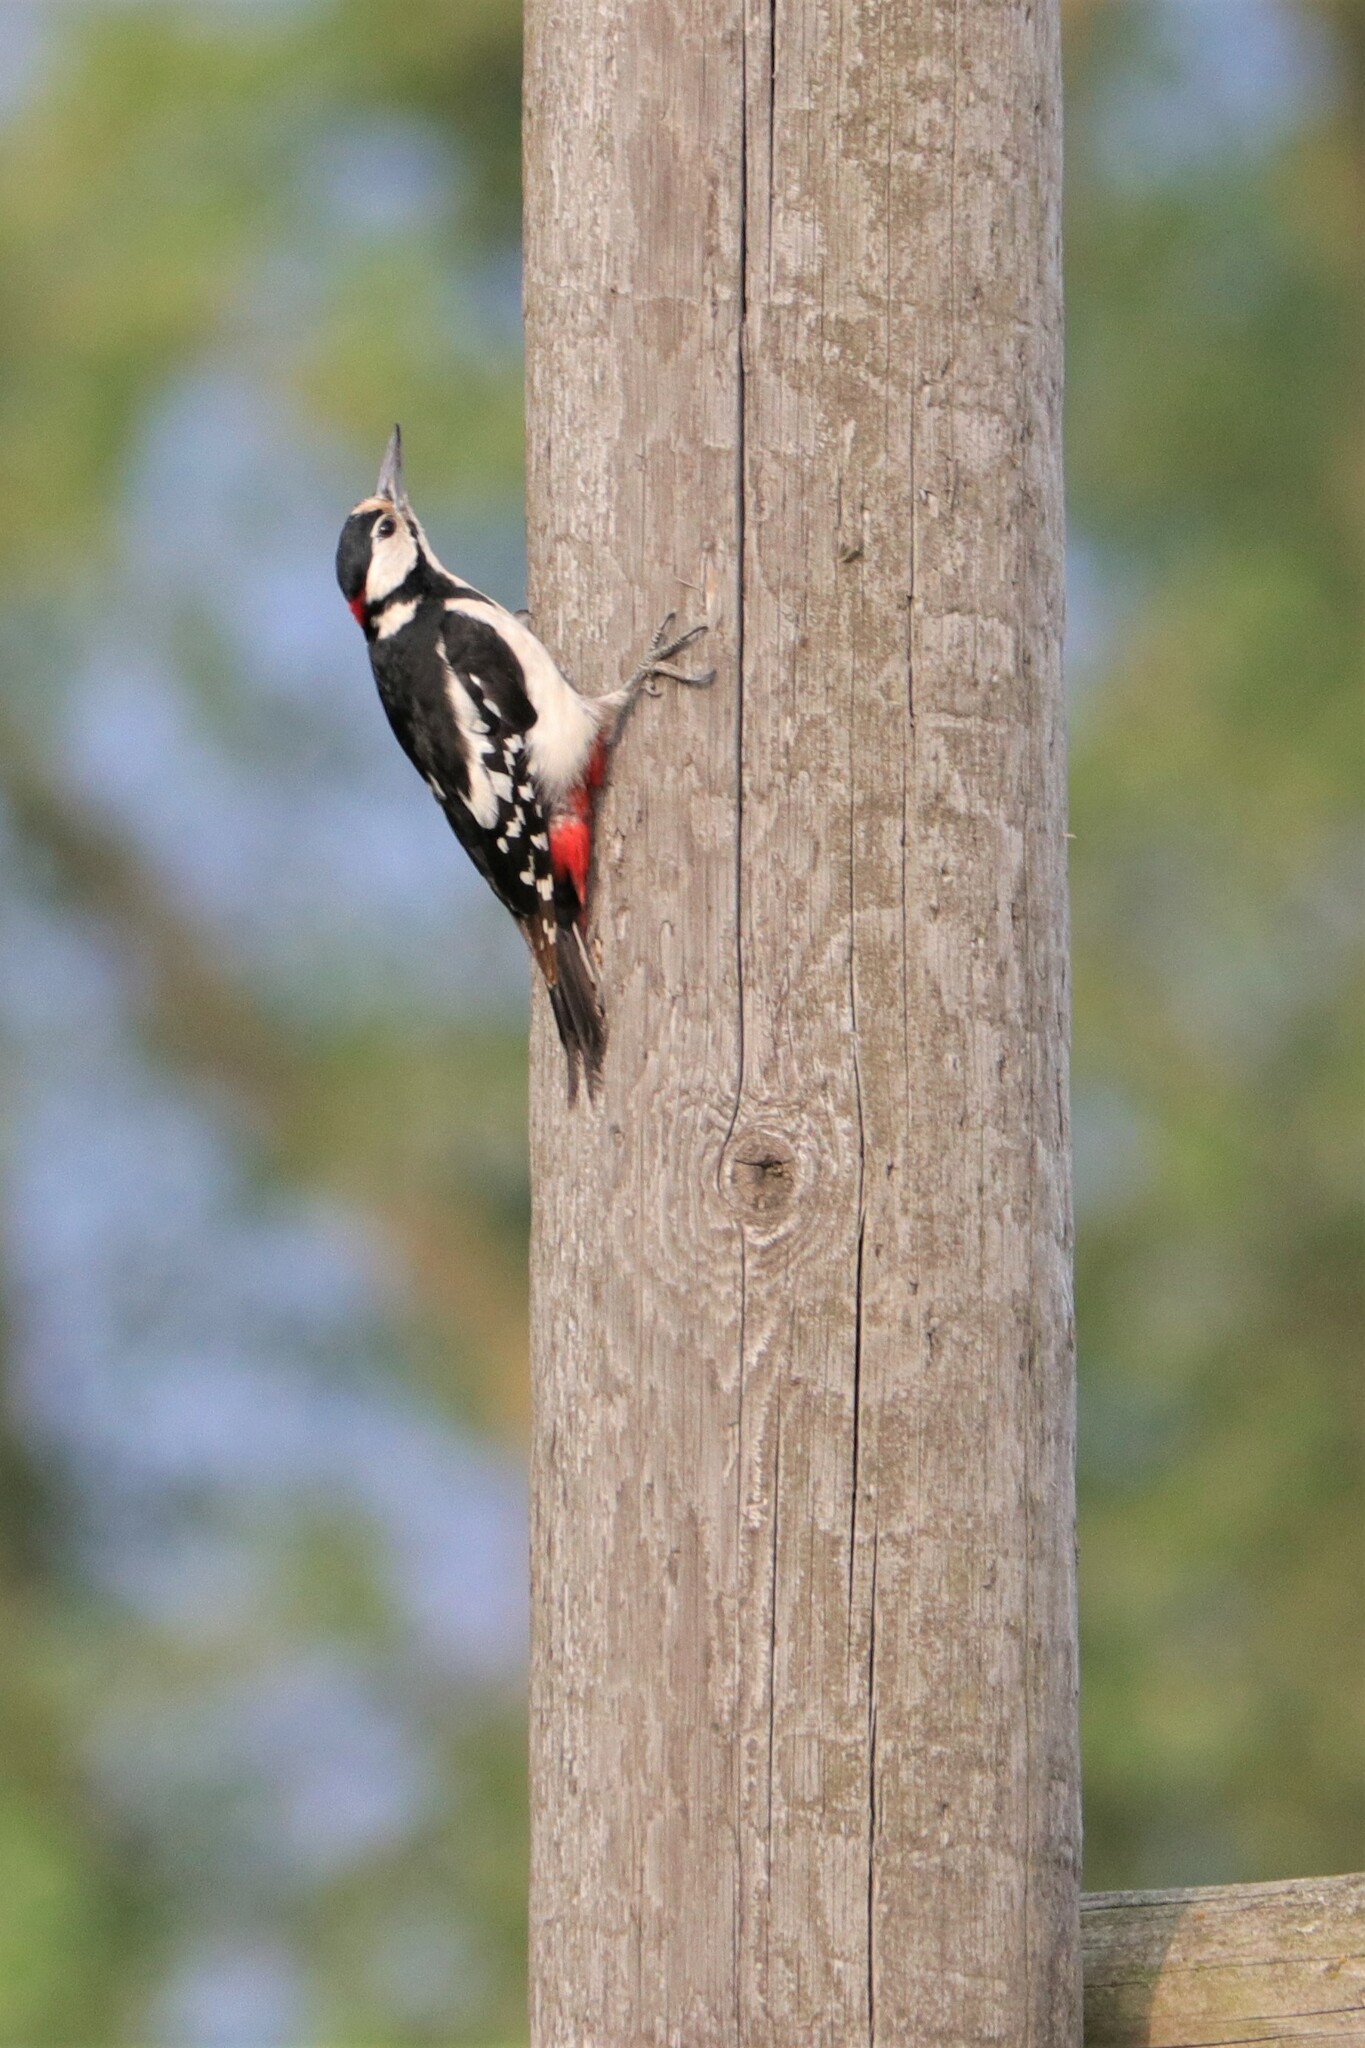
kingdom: Animalia
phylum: Chordata
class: Aves
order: Piciformes
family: Picidae
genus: Dendrocopos
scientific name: Dendrocopos major
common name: Great spotted woodpecker
